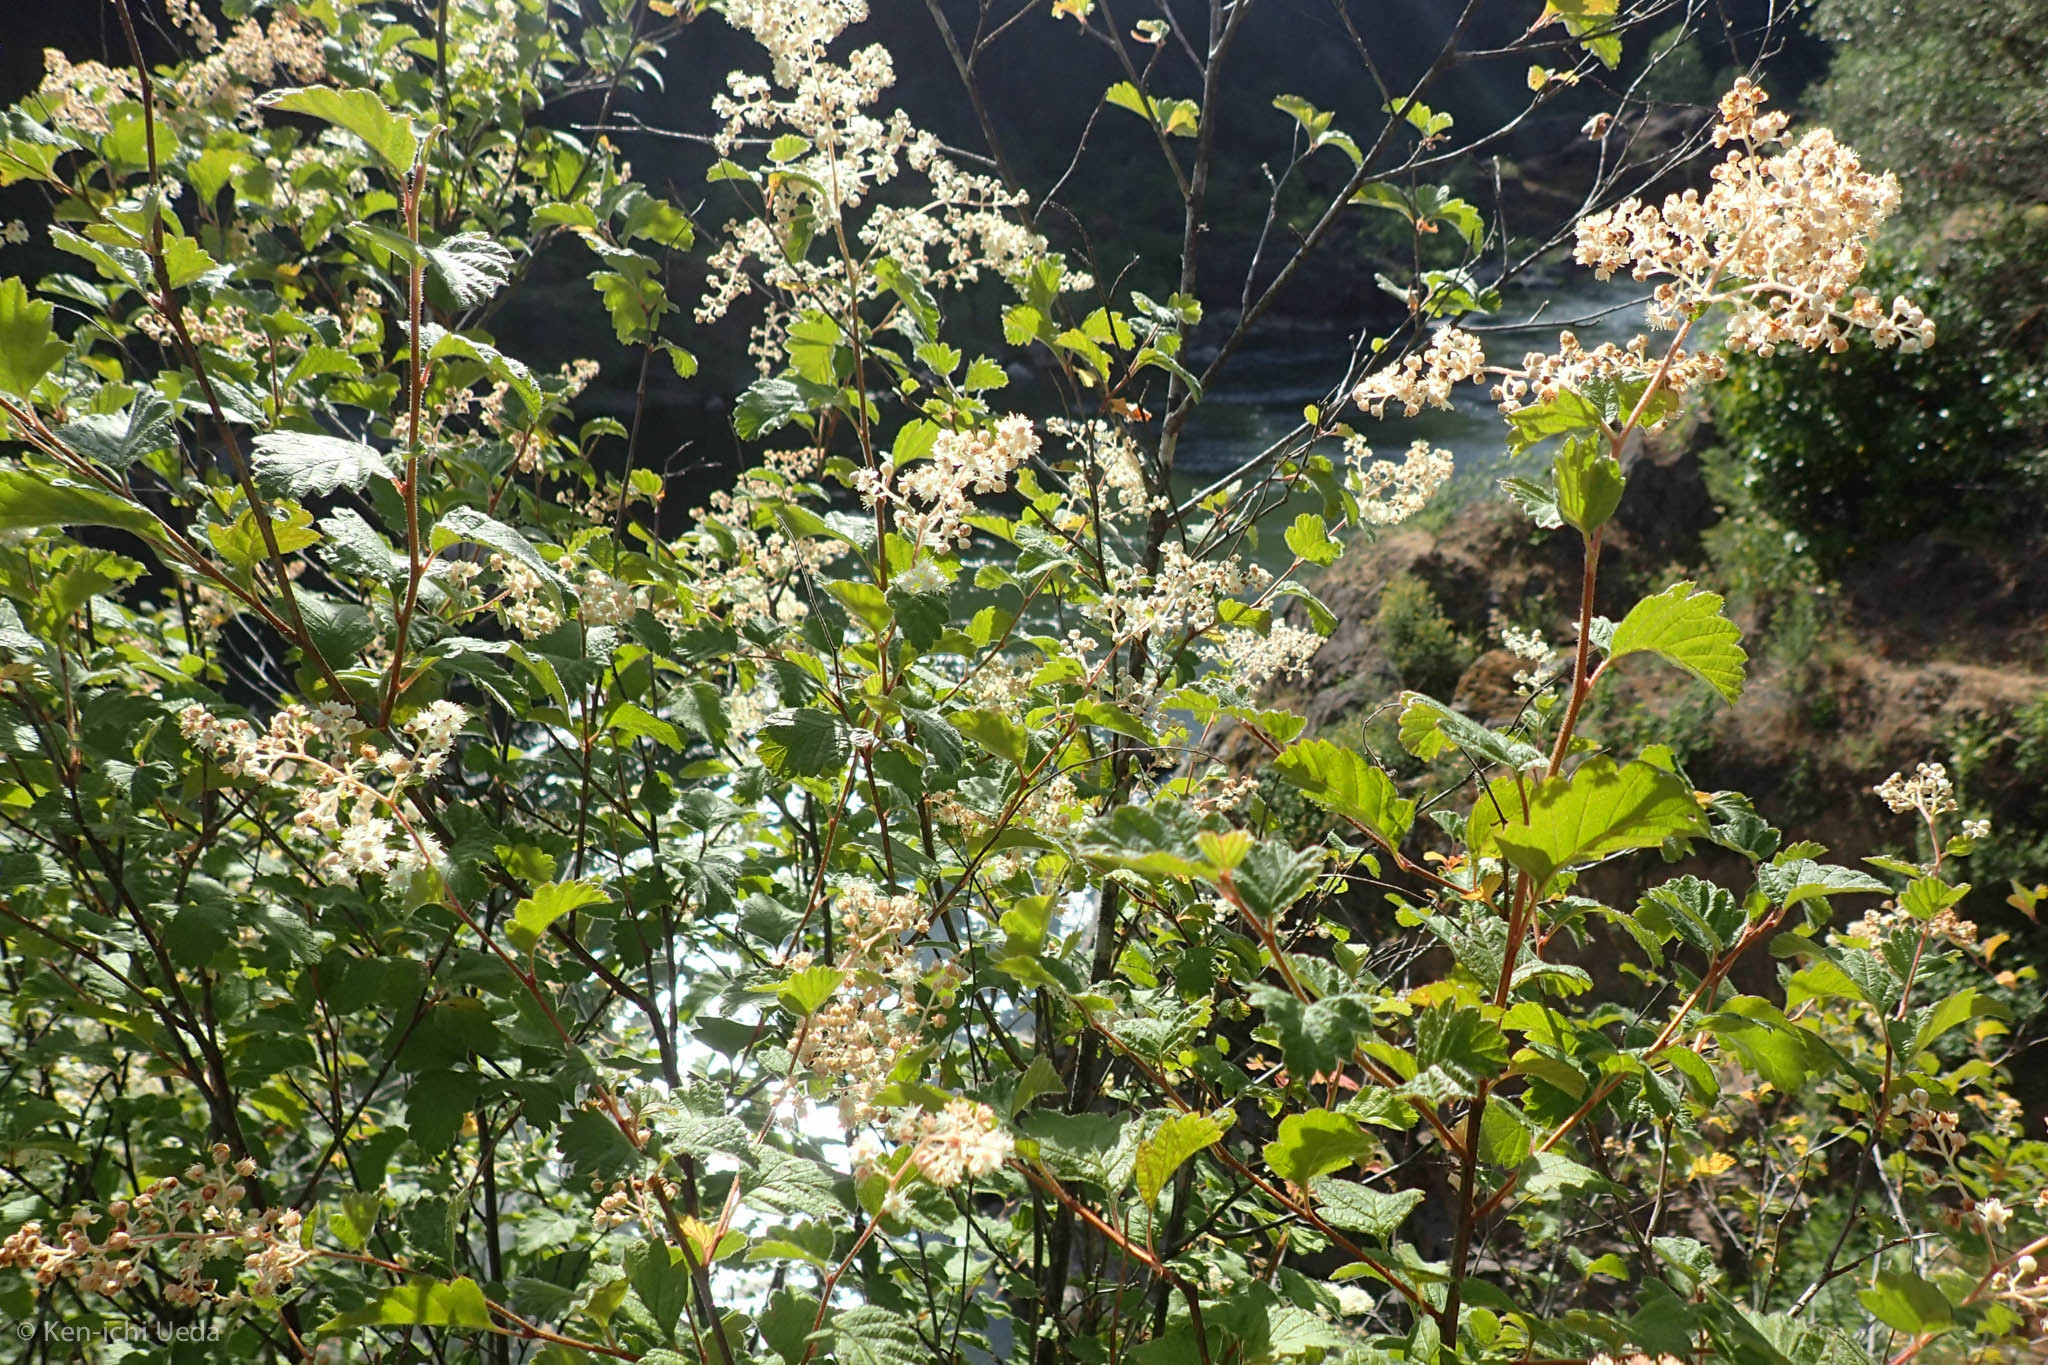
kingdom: Plantae
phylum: Tracheophyta
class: Magnoliopsida
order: Rosales
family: Rosaceae
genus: Holodiscus
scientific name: Holodiscus discolor
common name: Oceanspray
